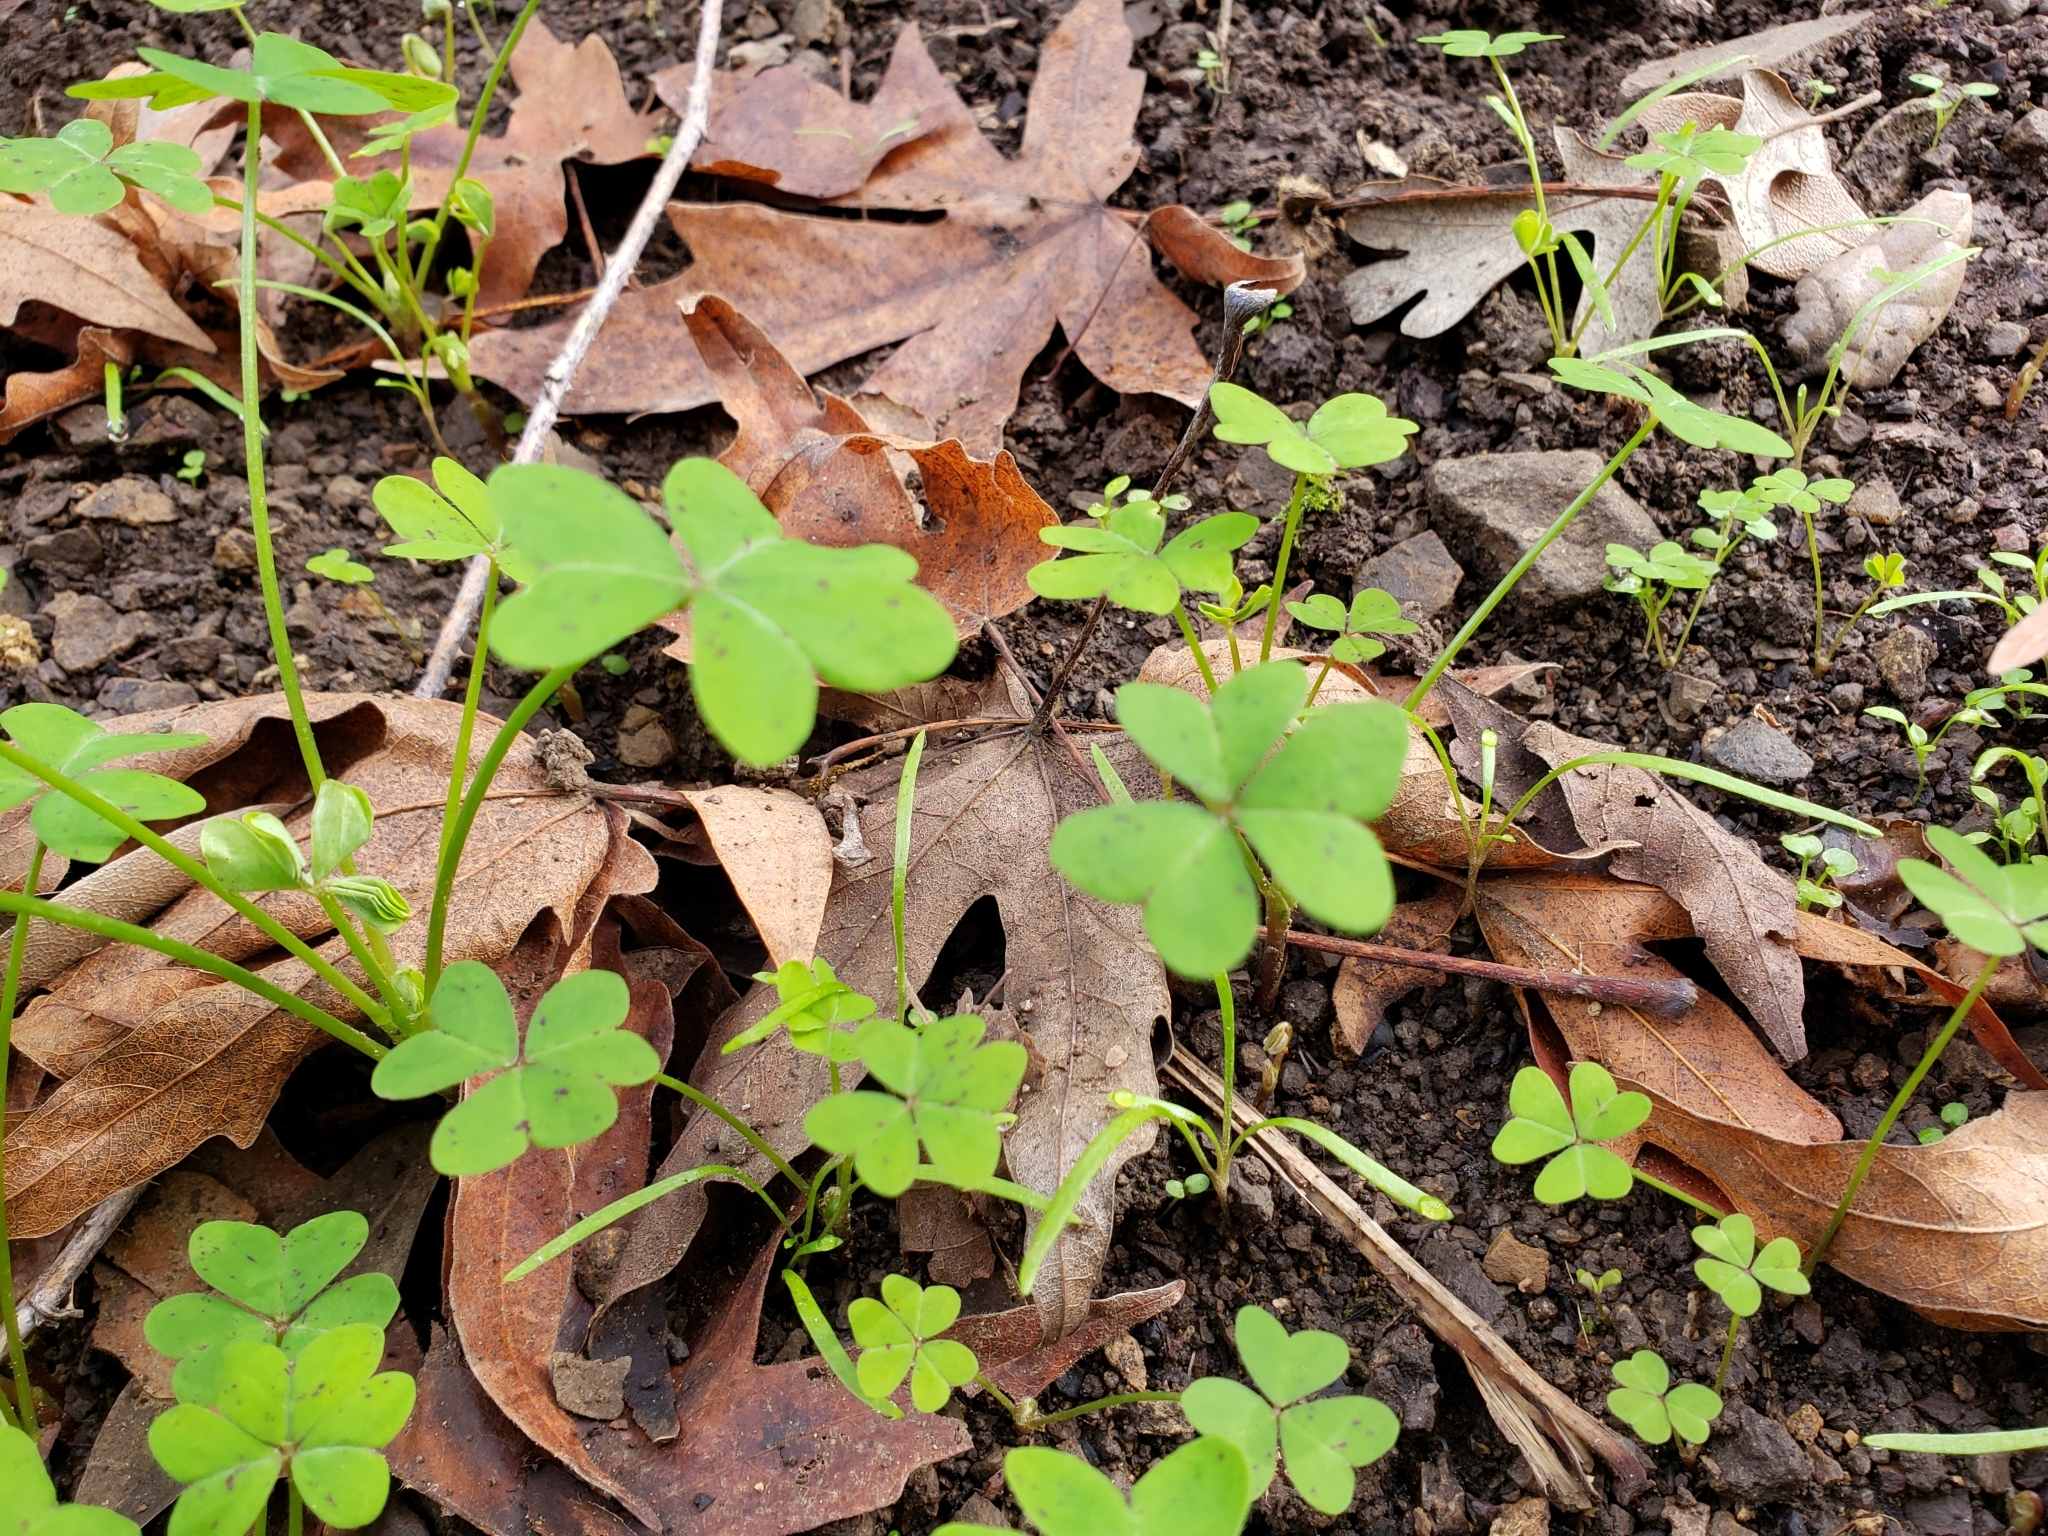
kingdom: Plantae
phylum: Tracheophyta
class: Magnoliopsida
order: Oxalidales
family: Oxalidaceae
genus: Oxalis
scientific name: Oxalis pes-caprae
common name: Bermuda-buttercup
